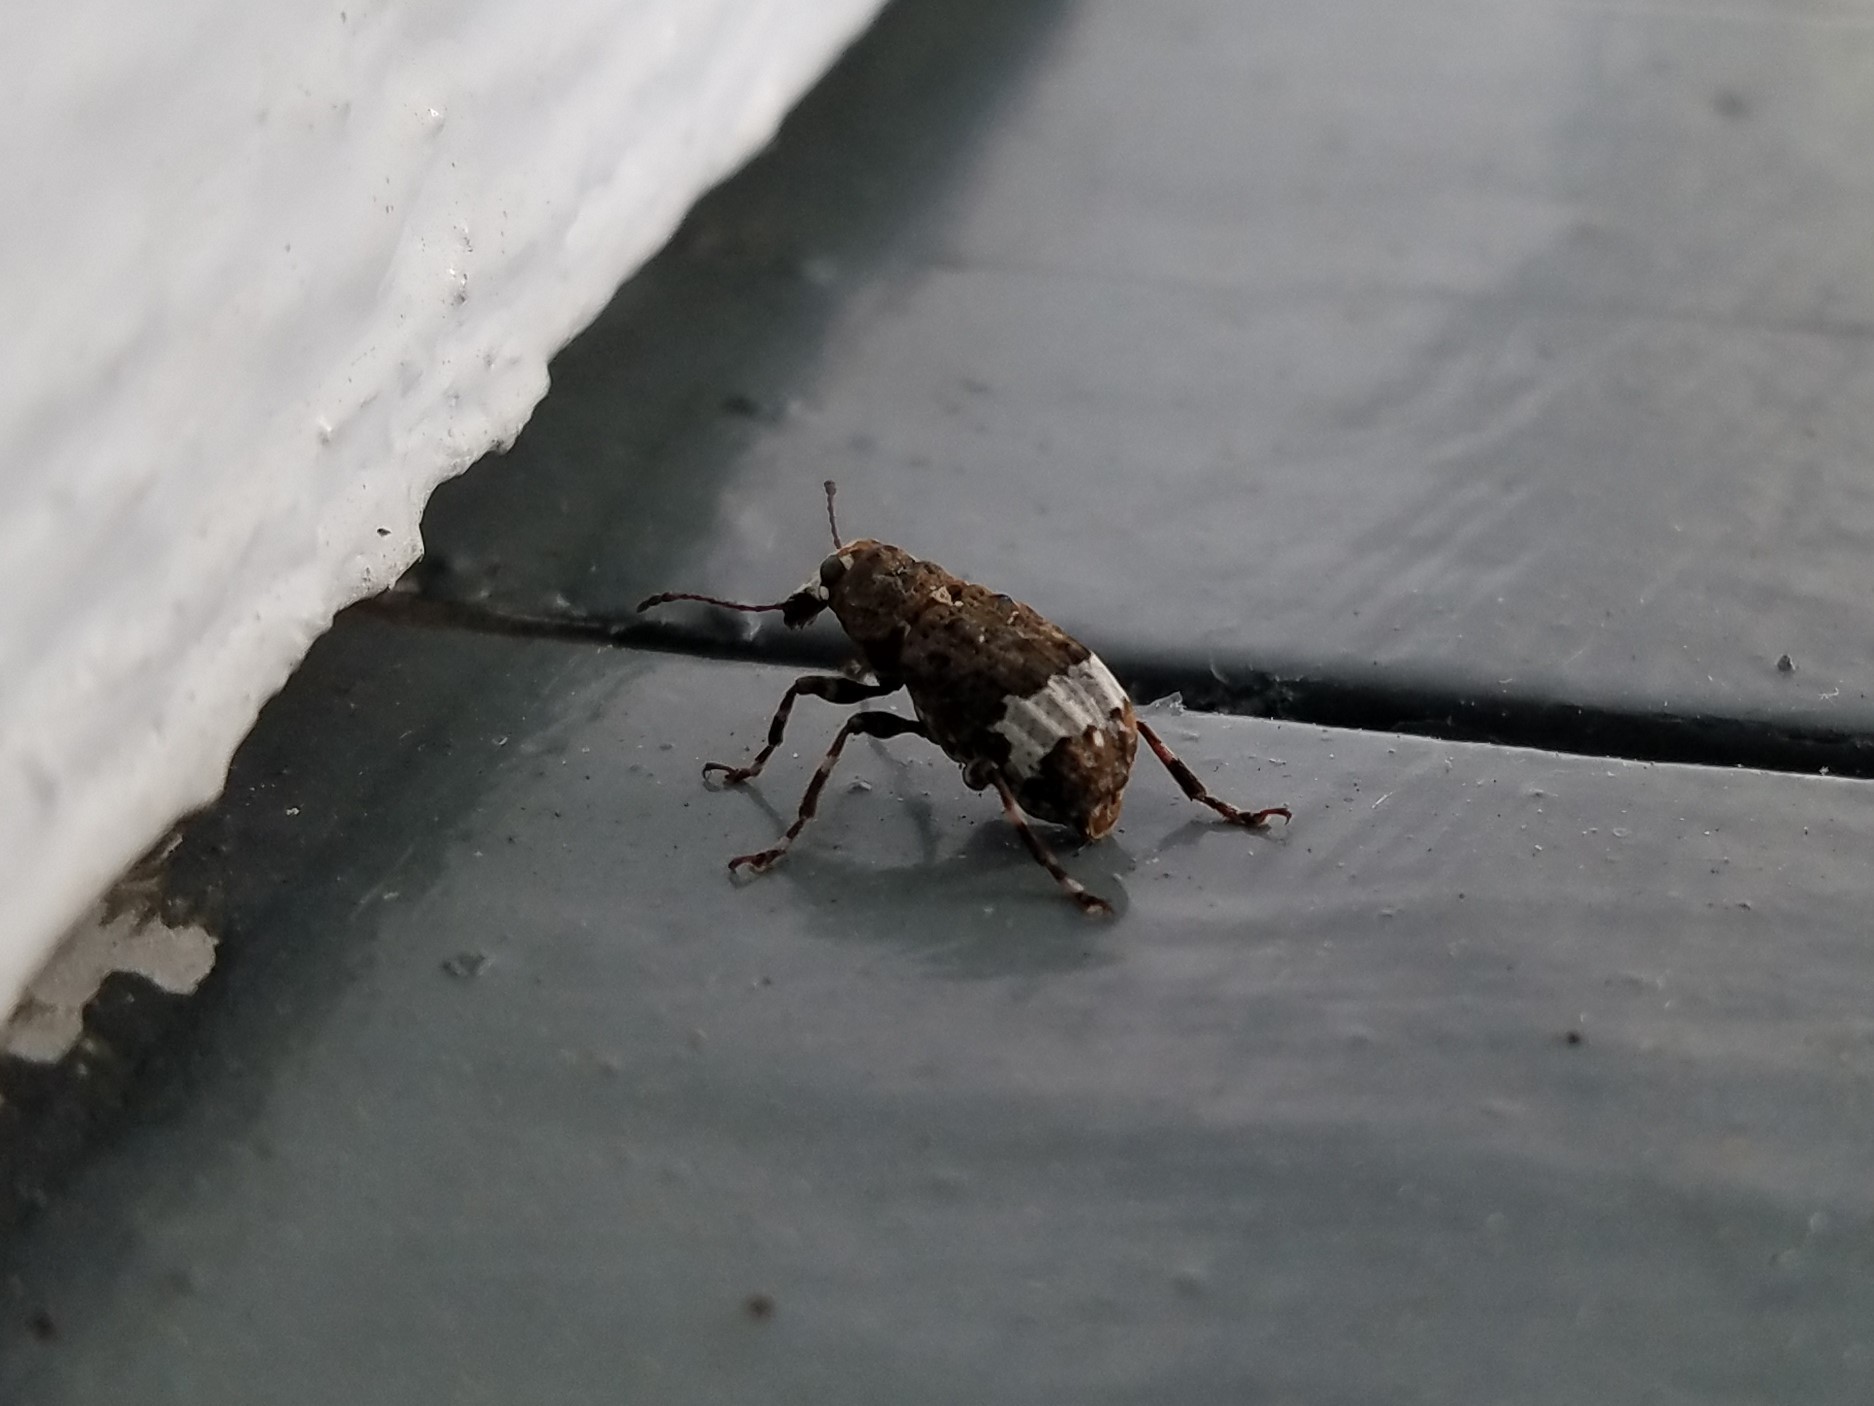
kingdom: Animalia
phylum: Arthropoda
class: Insecta
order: Coleoptera
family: Anthribidae
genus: Eurymycter
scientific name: Eurymycter tricarinatus
